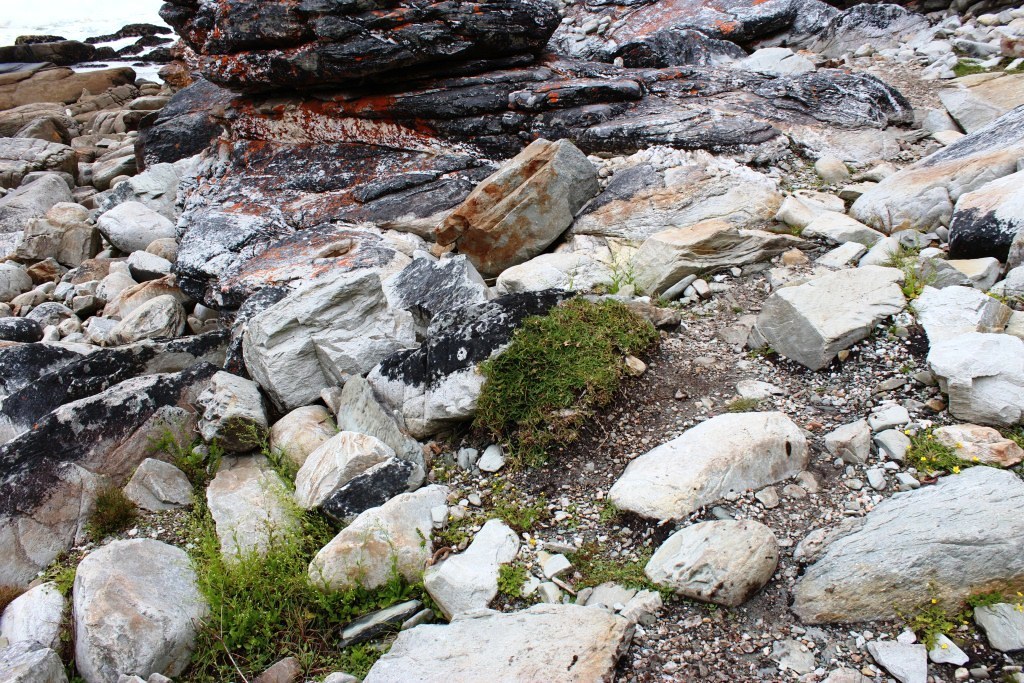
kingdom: Plantae
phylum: Tracheophyta
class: Liliopsida
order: Poales
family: Poaceae
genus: Stenotaphrum
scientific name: Stenotaphrum secundatum
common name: St. augustine grass
